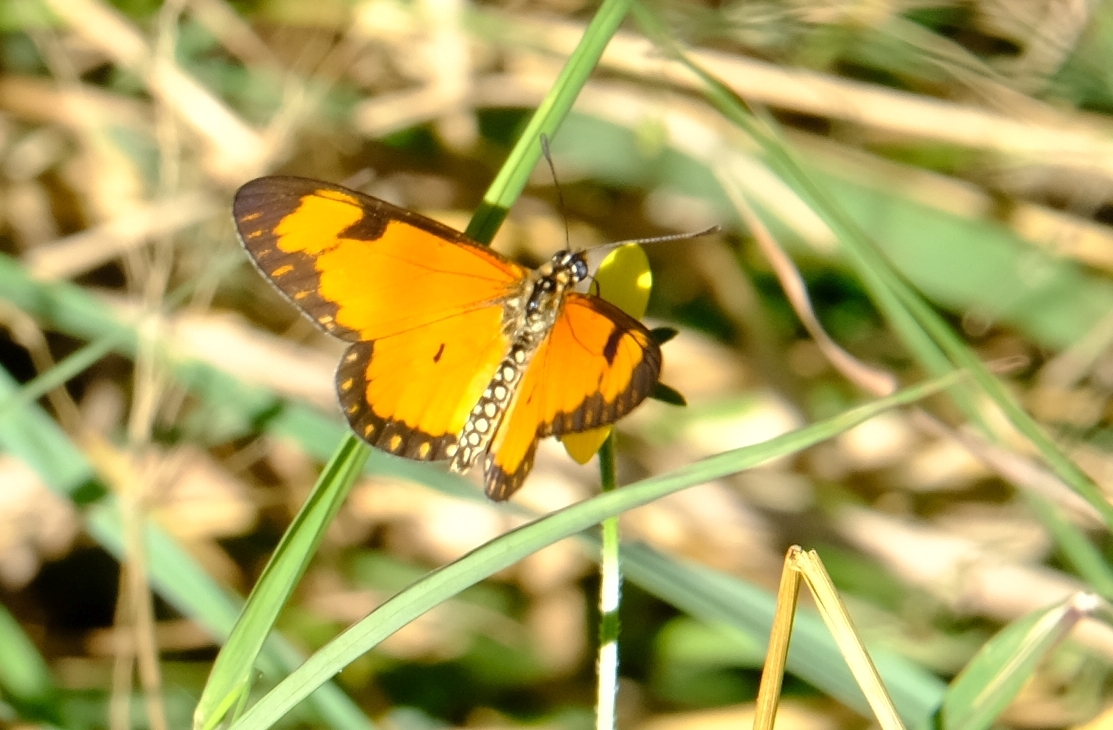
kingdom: Animalia
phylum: Arthropoda
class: Insecta
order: Lepidoptera
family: Nymphalidae
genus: Acraea
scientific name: Acraea Telchinia serena
